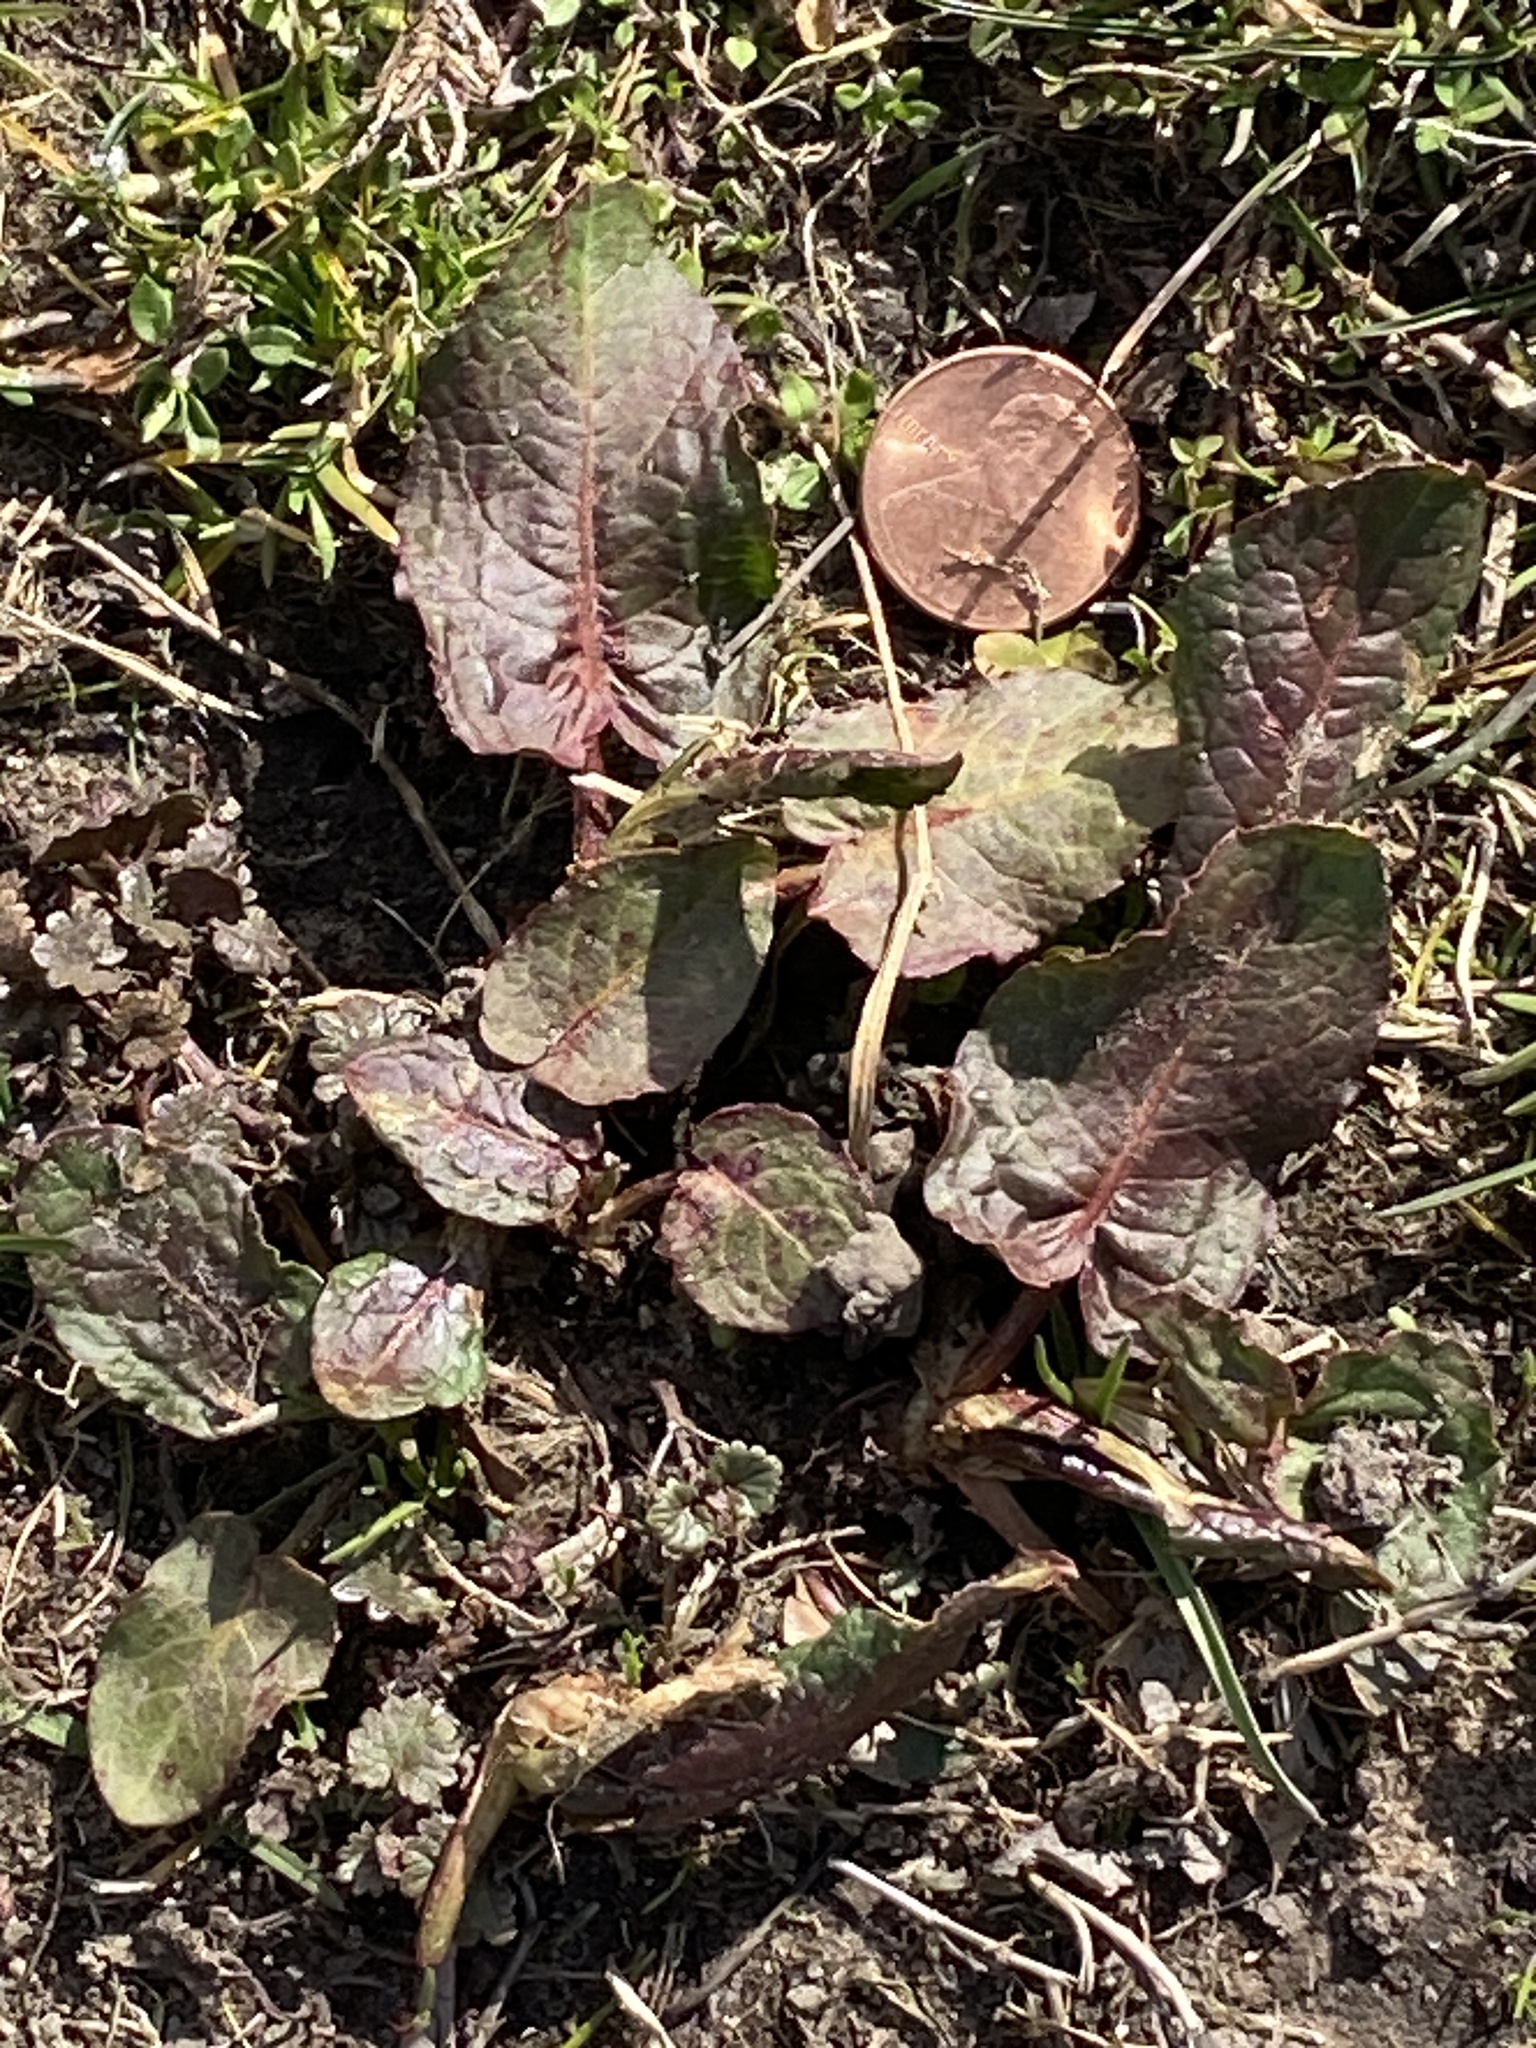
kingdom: Plantae
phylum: Tracheophyta
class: Magnoliopsida
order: Caryophyllales
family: Polygonaceae
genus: Rumex
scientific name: Rumex obtusifolius
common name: Bitter dock
